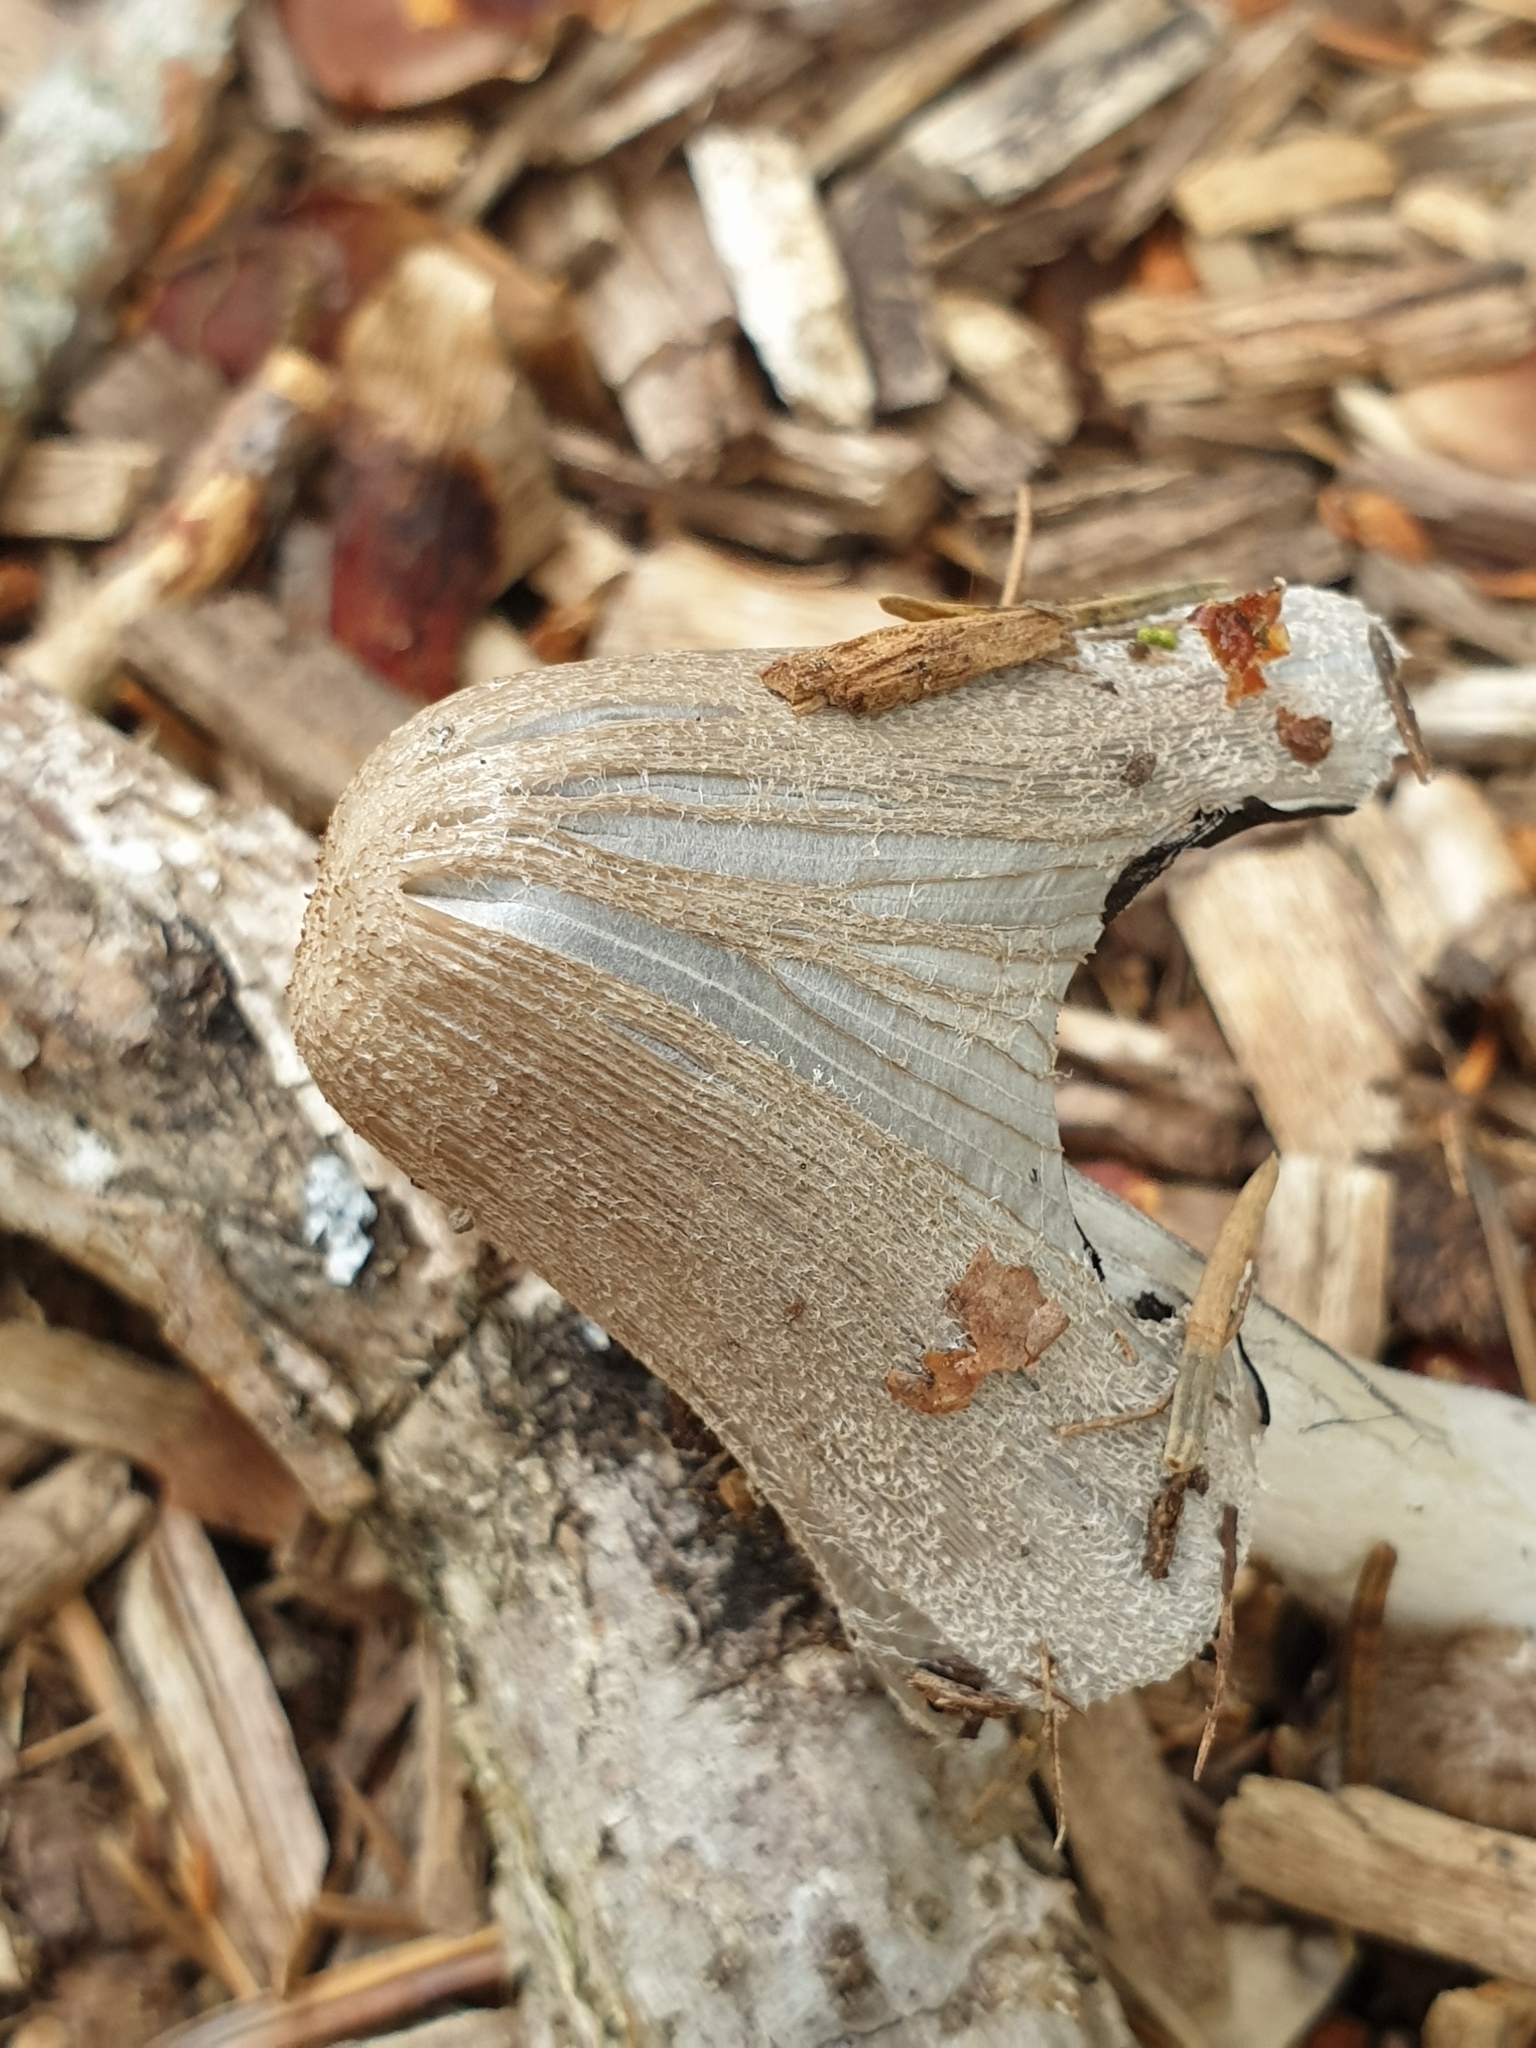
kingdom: Fungi
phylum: Basidiomycota
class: Agaricomycetes
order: Agaricales
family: Psathyrellaceae
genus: Coprinopsis
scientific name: Coprinopsis lagopus
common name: Hare'sfoot inkcap
